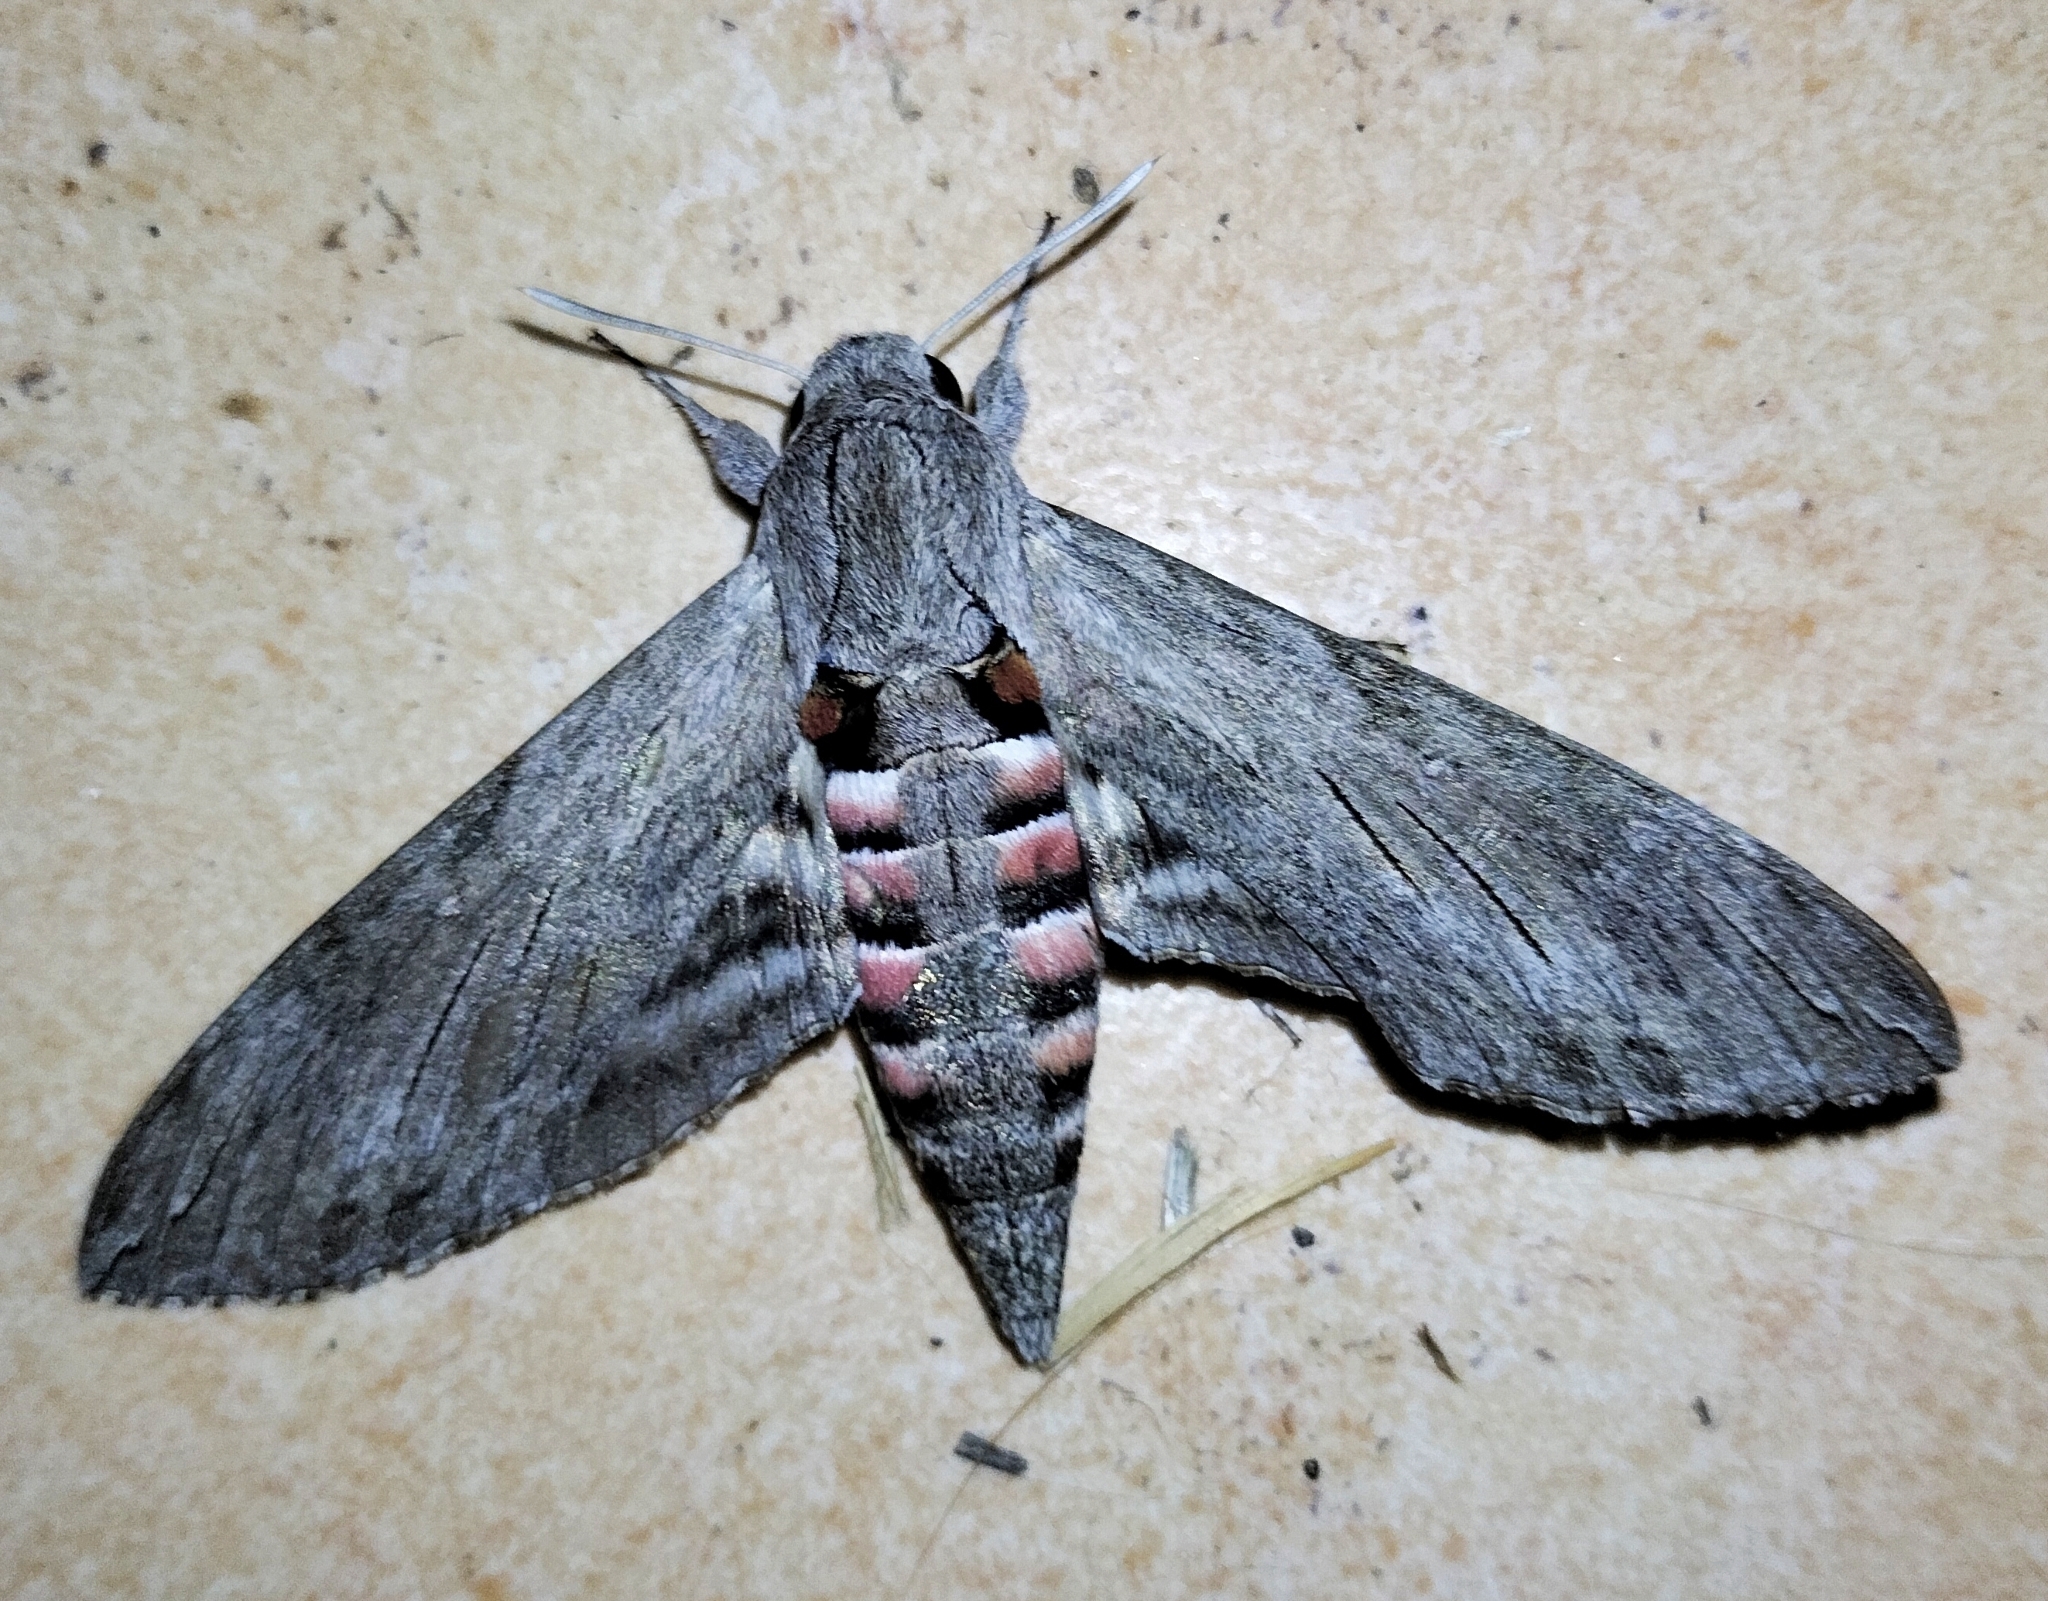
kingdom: Animalia
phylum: Arthropoda
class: Insecta
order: Lepidoptera
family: Sphingidae
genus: Agrius
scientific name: Agrius convolvuli
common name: Convolvulus hawkmoth
